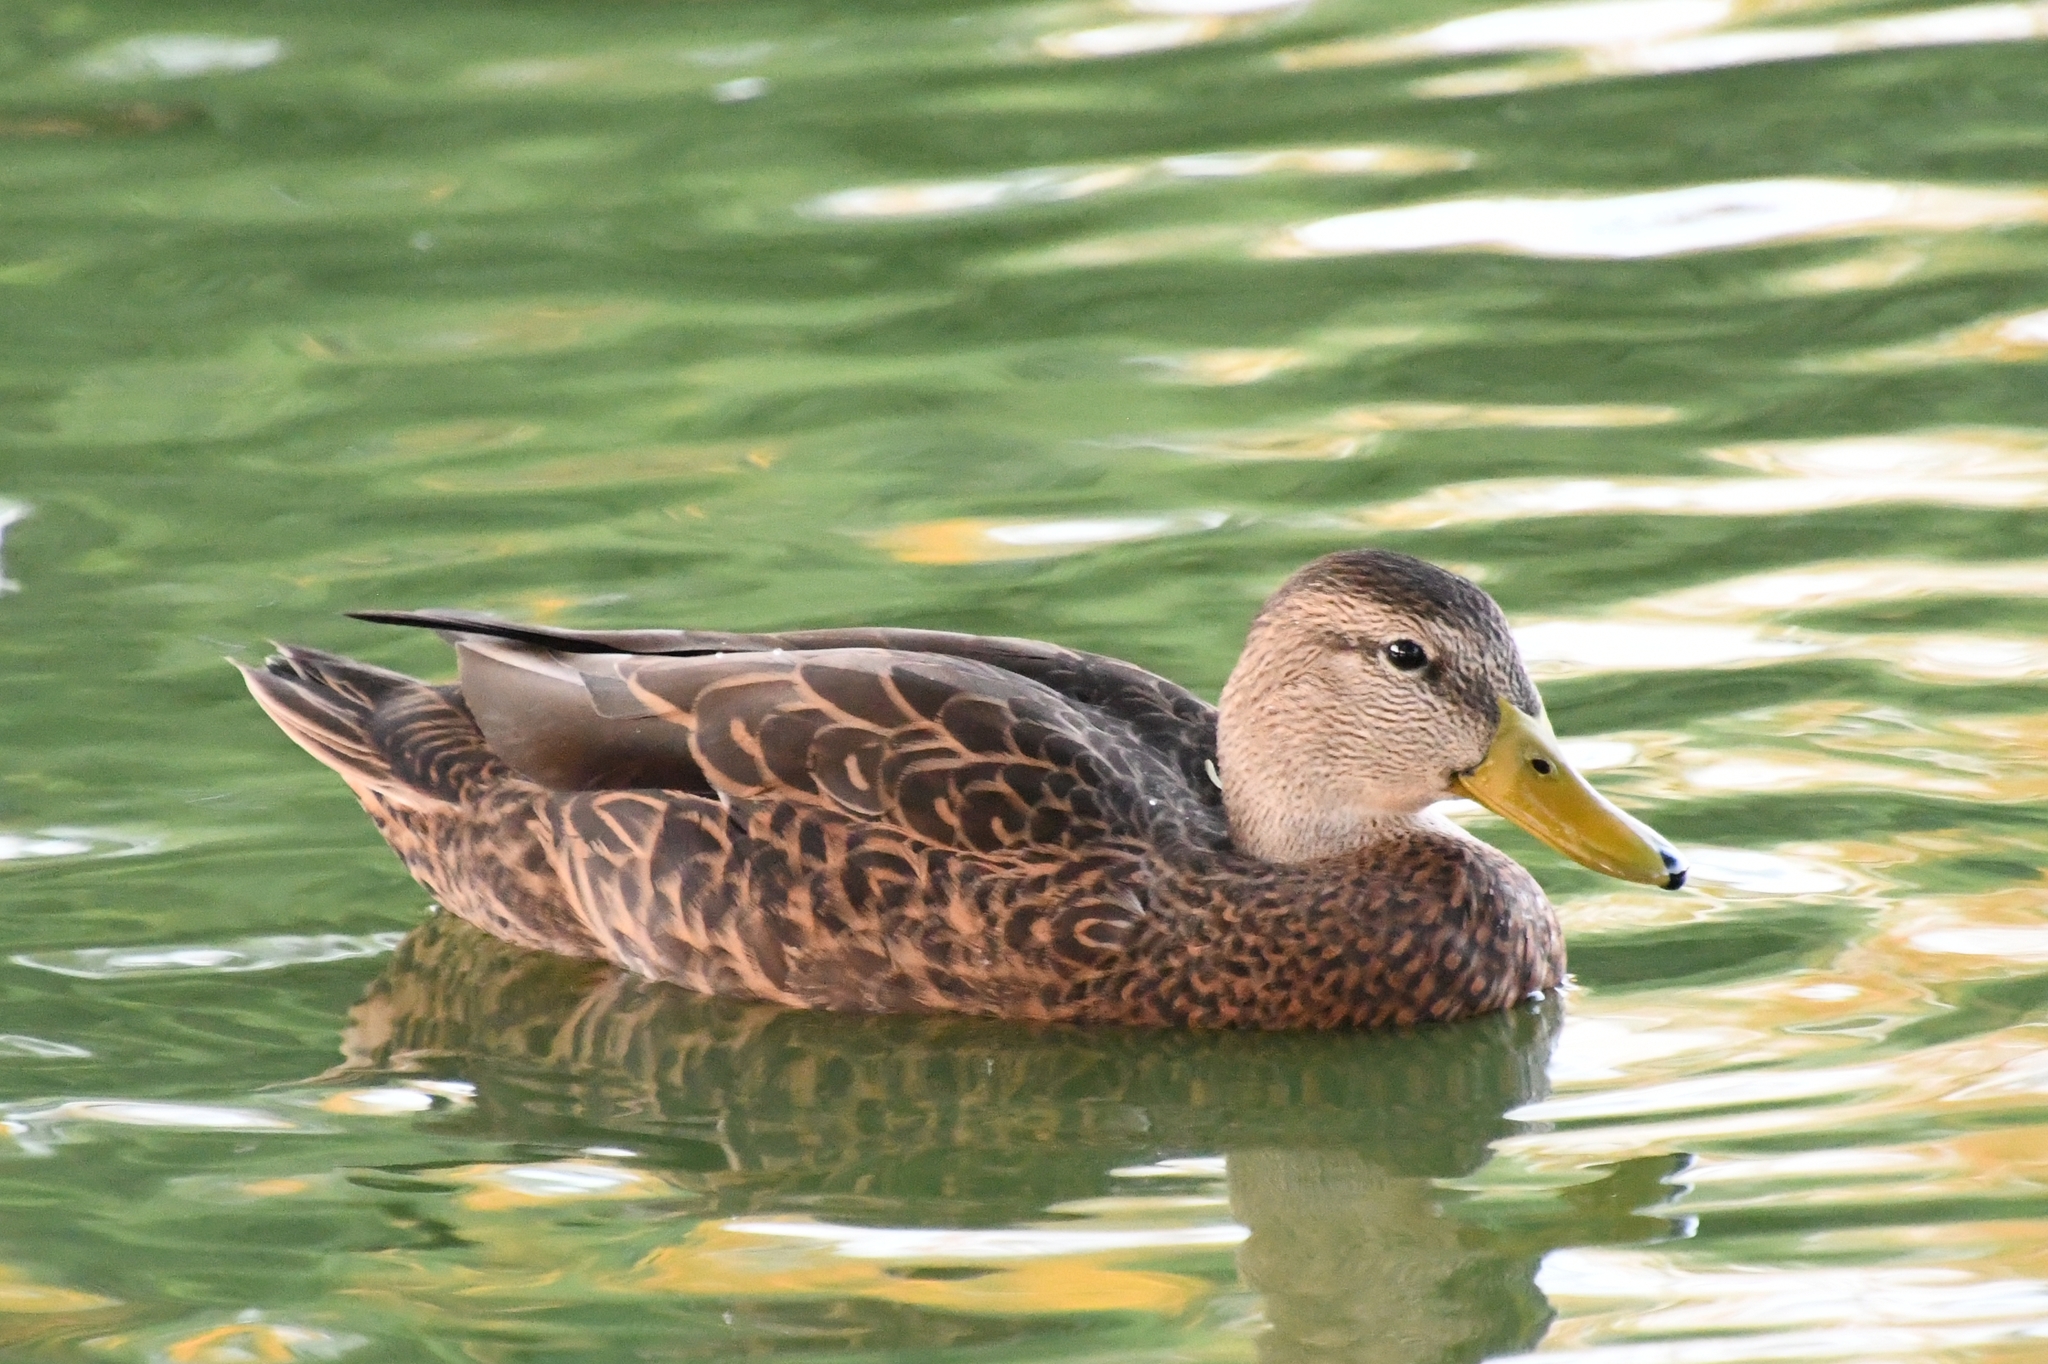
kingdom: Animalia
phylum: Chordata
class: Aves
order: Anseriformes
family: Anatidae
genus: Anas
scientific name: Anas diazi
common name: Mexican duck
